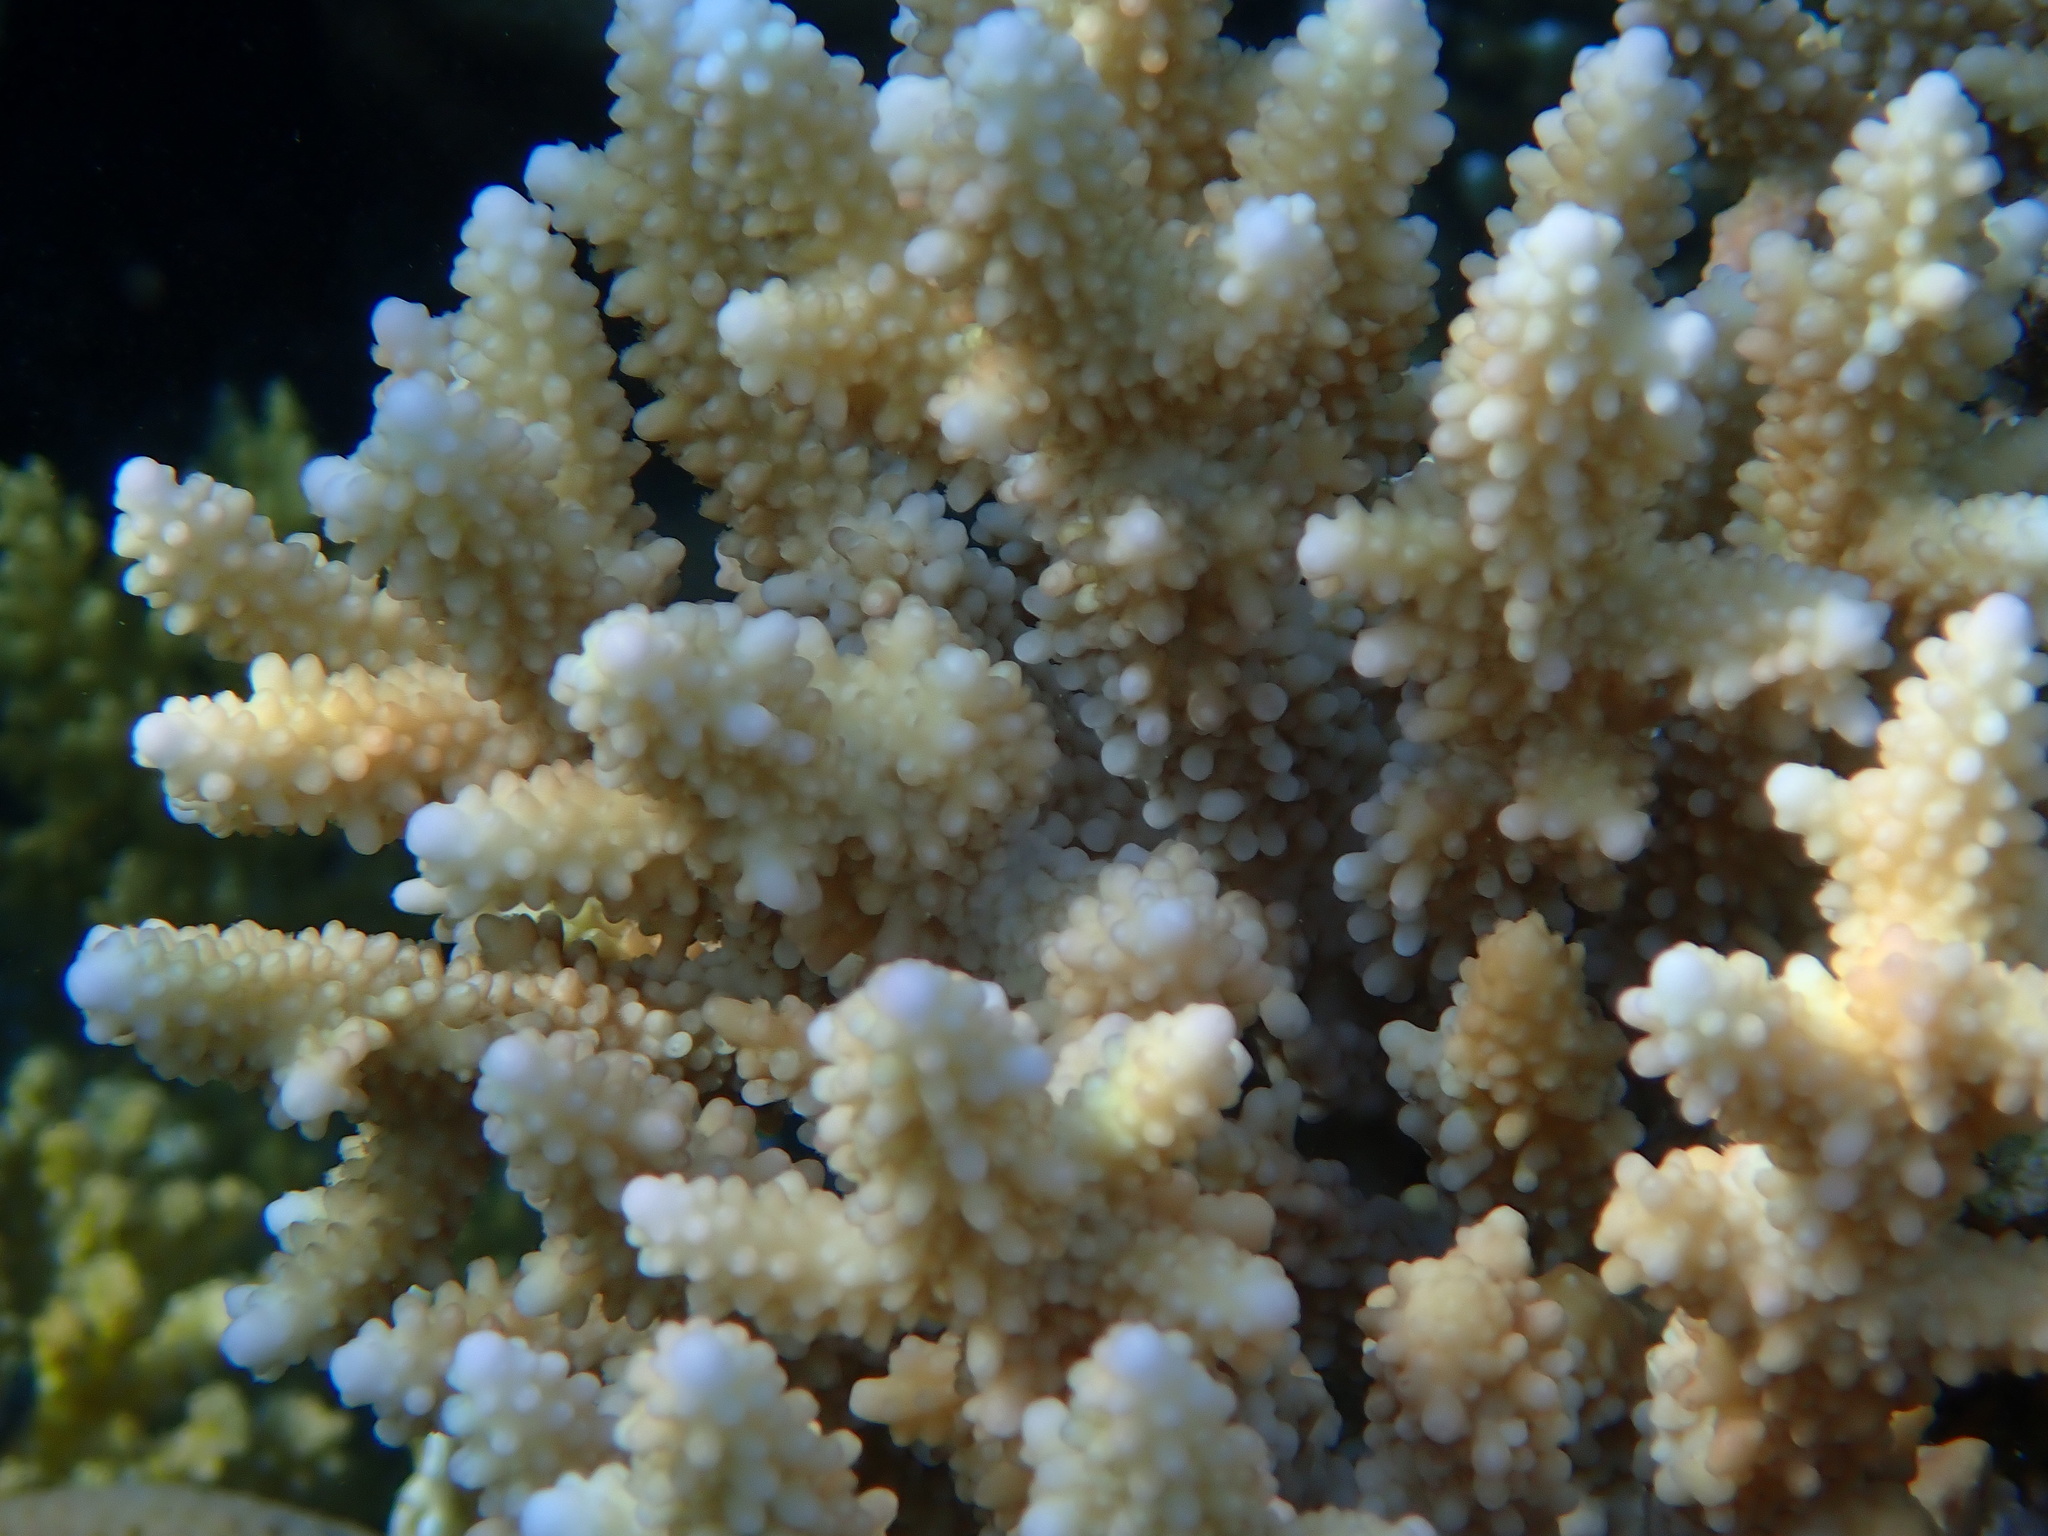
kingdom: Animalia
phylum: Cnidaria
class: Anthozoa
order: Scleractinia
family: Acroporidae
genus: Acropora
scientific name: Acropora hemprichii
